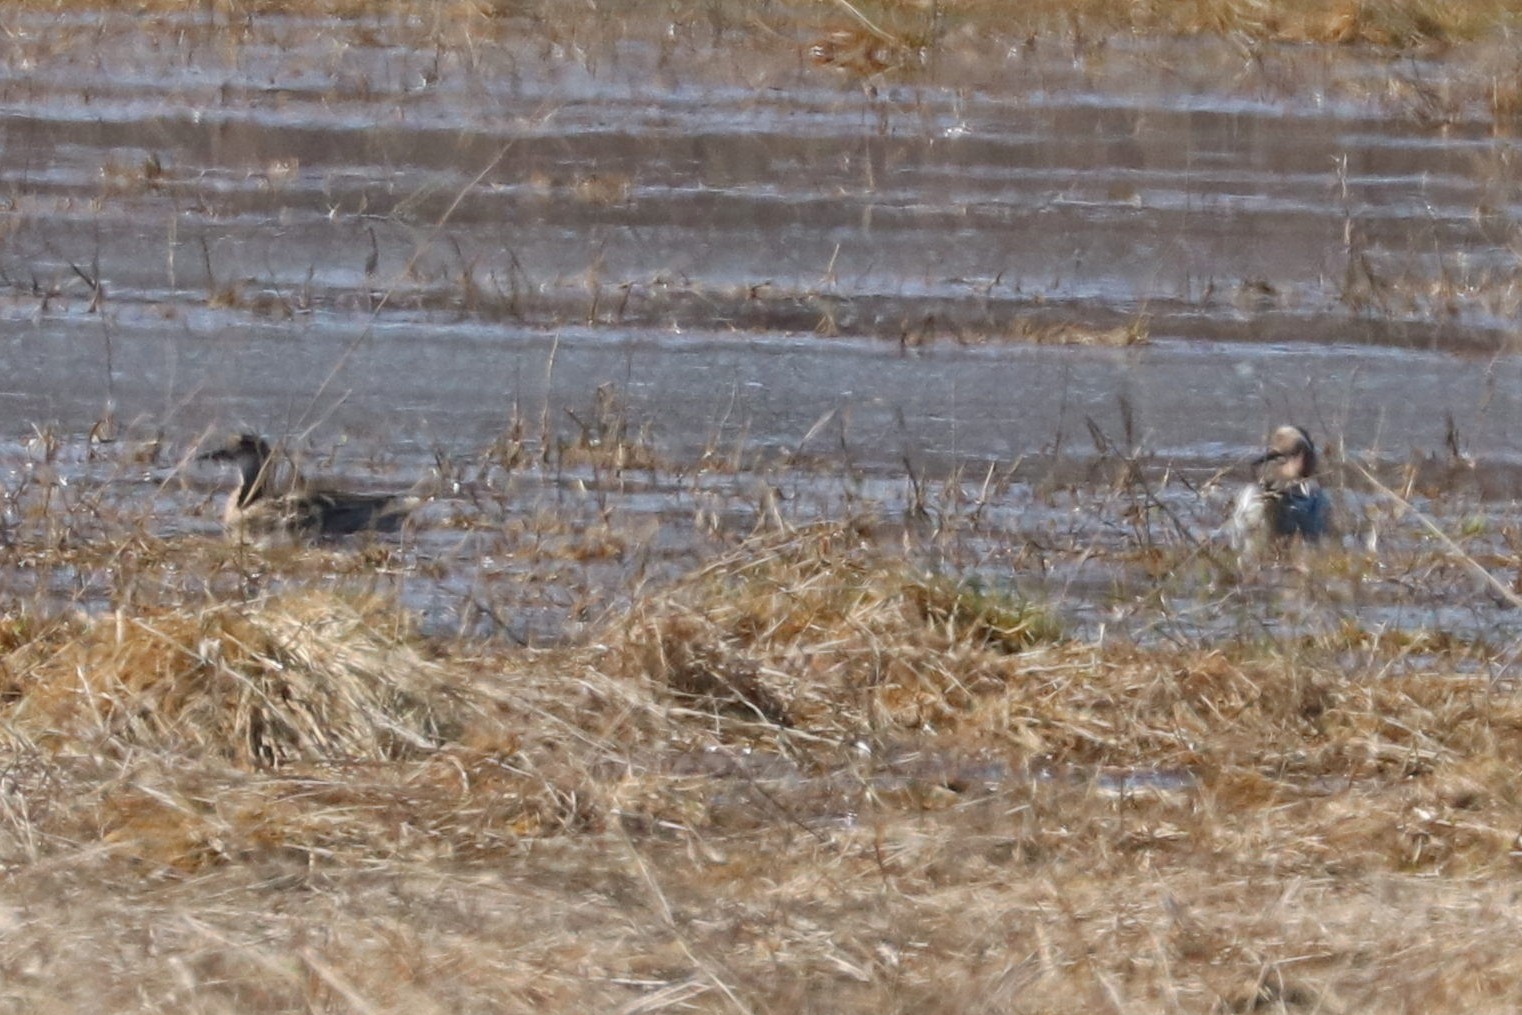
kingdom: Animalia
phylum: Chordata
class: Aves
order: Anseriformes
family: Anatidae
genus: Spatula
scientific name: Spatula querquedula
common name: Garganey
